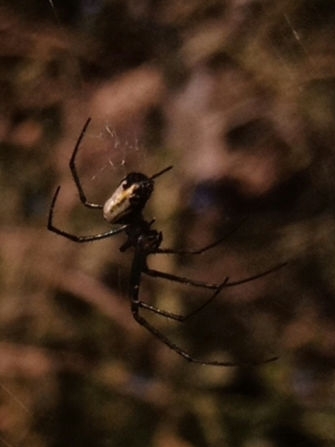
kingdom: Animalia
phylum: Arthropoda
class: Arachnida
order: Araneae
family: Tetragnathidae
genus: Leucauge
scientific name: Leucauge venusta
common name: Longjawed orb weavers
